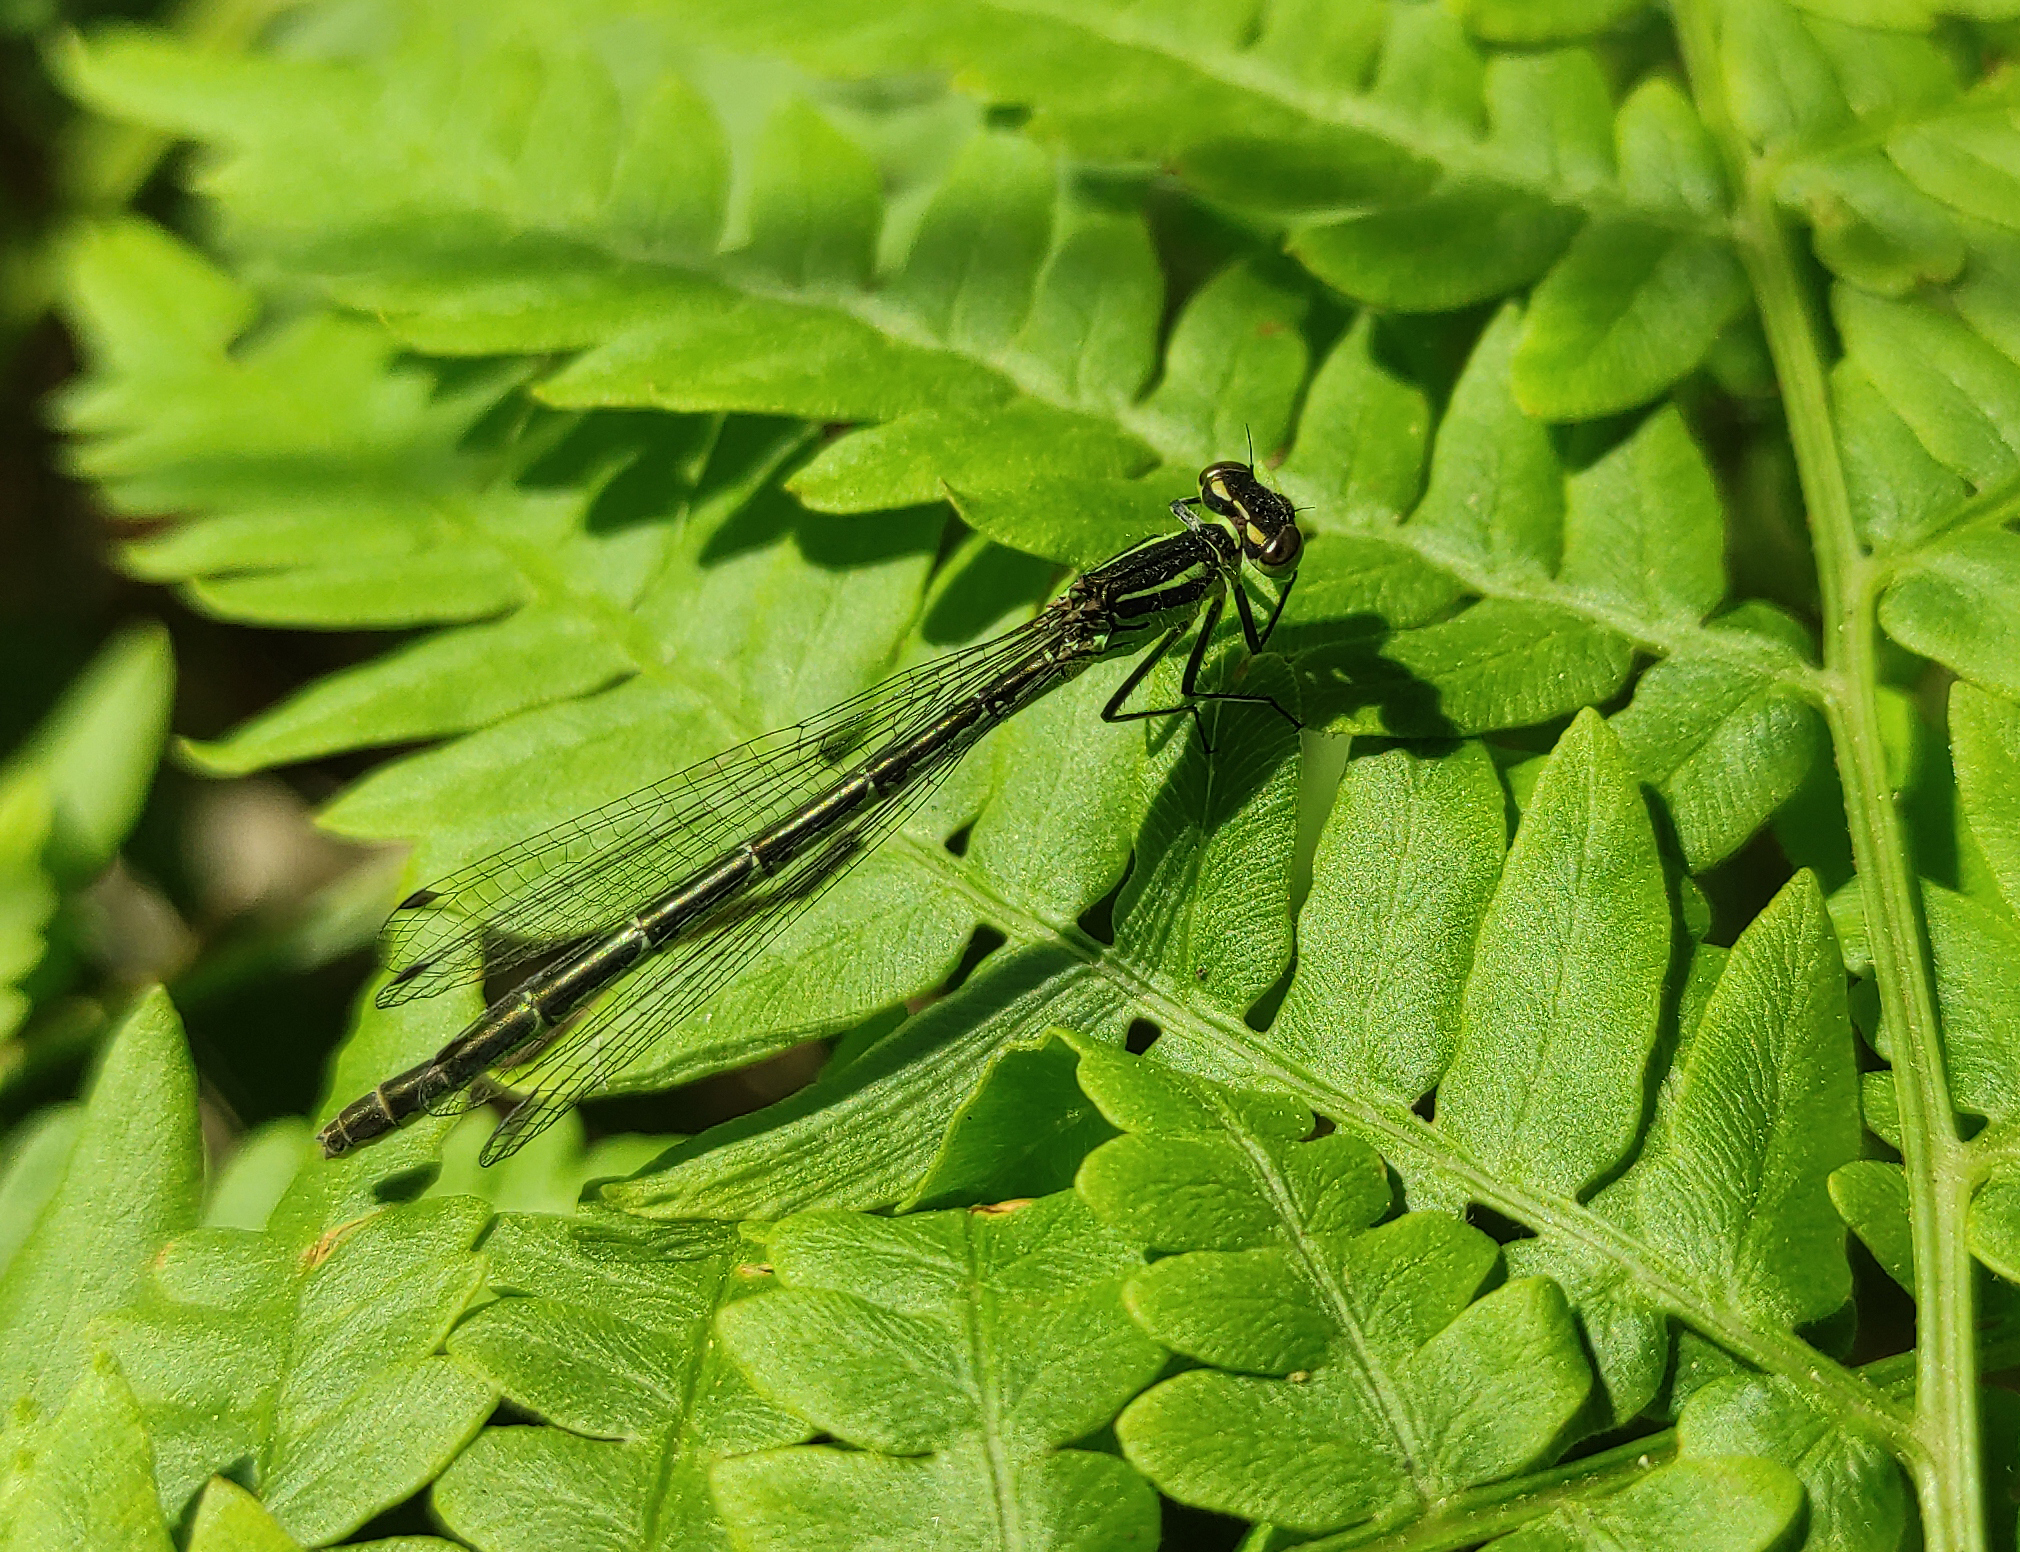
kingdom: Animalia
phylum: Arthropoda
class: Insecta
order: Odonata
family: Coenagrionidae
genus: Coenagrion
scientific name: Coenagrion hastulatum
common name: Spearhead bluet
